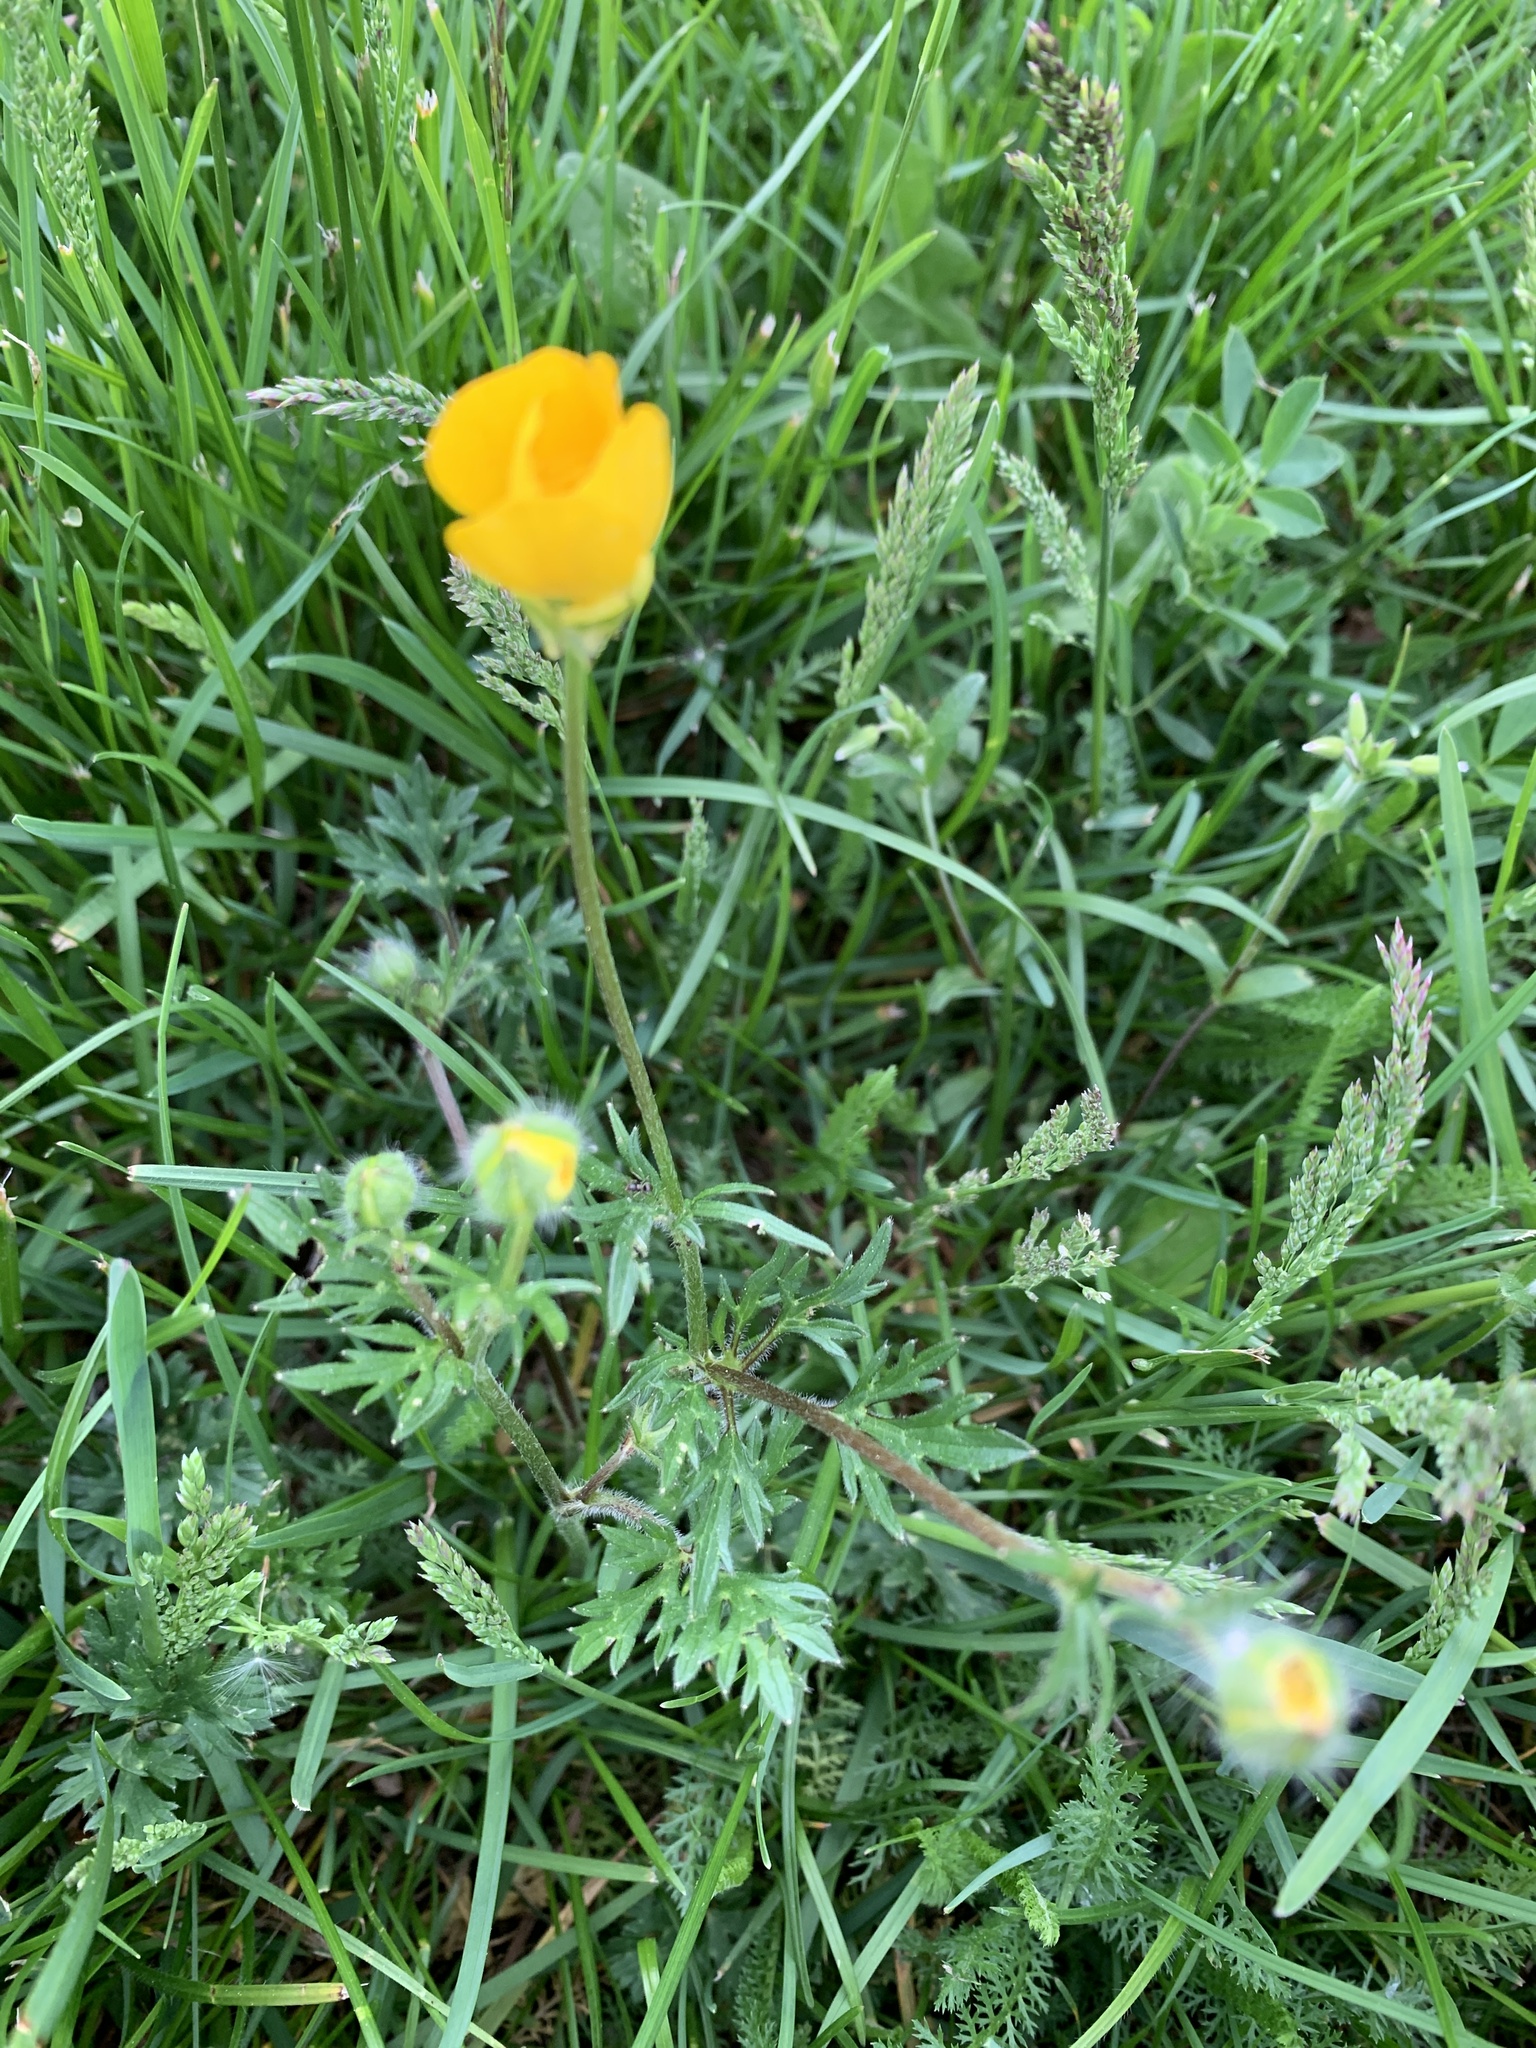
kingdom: Plantae
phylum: Tracheophyta
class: Magnoliopsida
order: Ranunculales
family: Ranunculaceae
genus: Ranunculus
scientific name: Ranunculus bulbosus
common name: Bulbous buttercup
